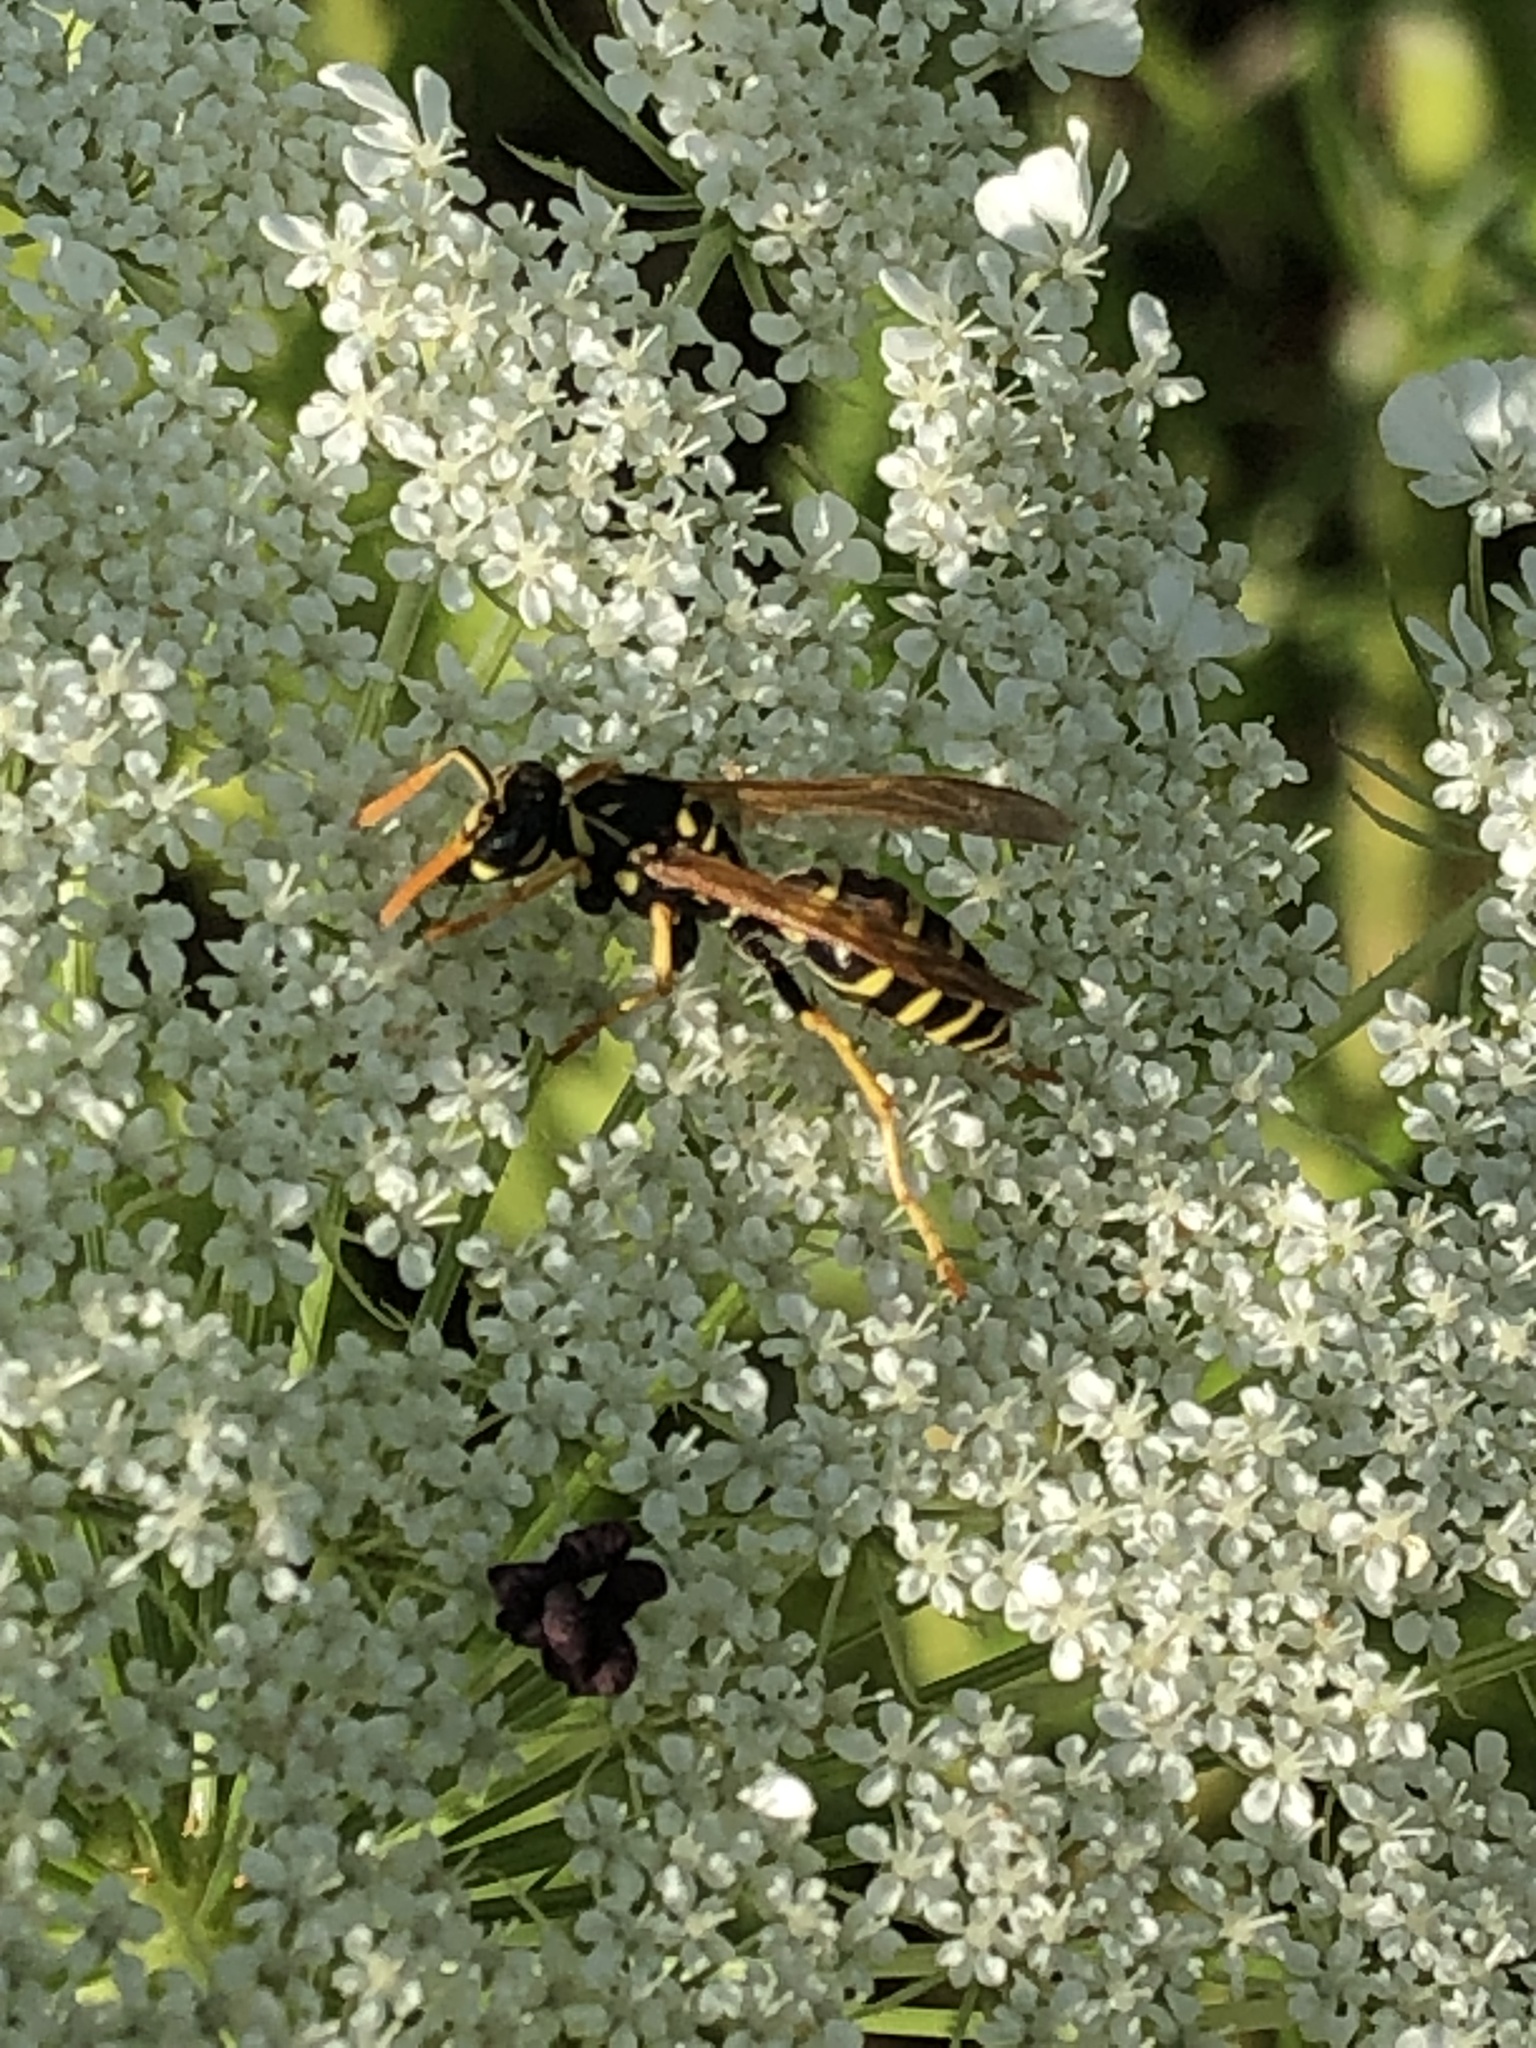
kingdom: Animalia
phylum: Arthropoda
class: Insecta
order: Hymenoptera
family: Eumenidae
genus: Polistes
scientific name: Polistes dominula
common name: Paper wasp
